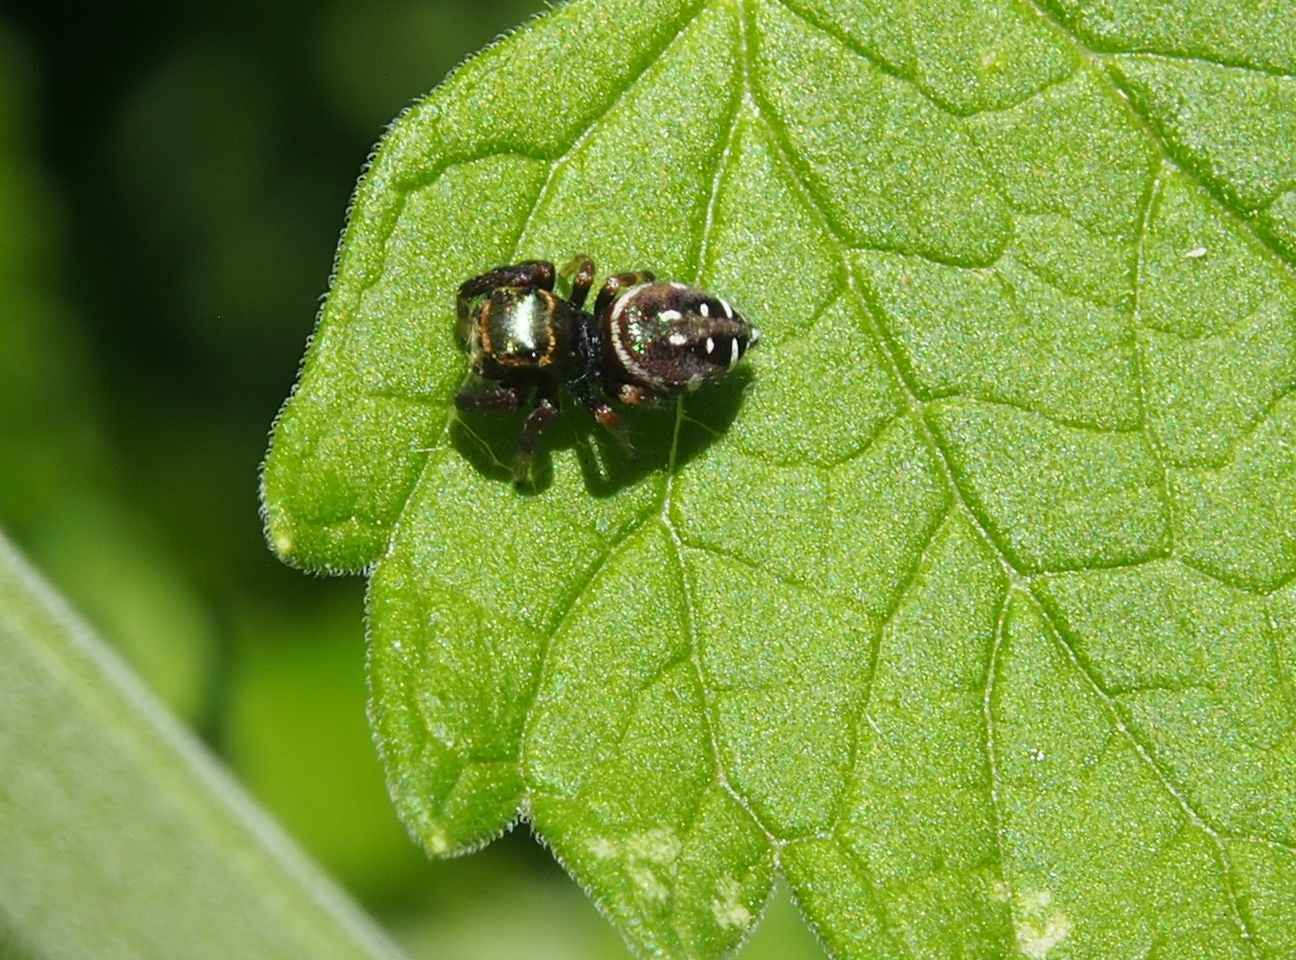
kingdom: Animalia
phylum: Arthropoda
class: Arachnida
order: Araneae
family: Salticidae
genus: Paraphidippus
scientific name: Paraphidippus aurantius
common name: Jumping spiders
